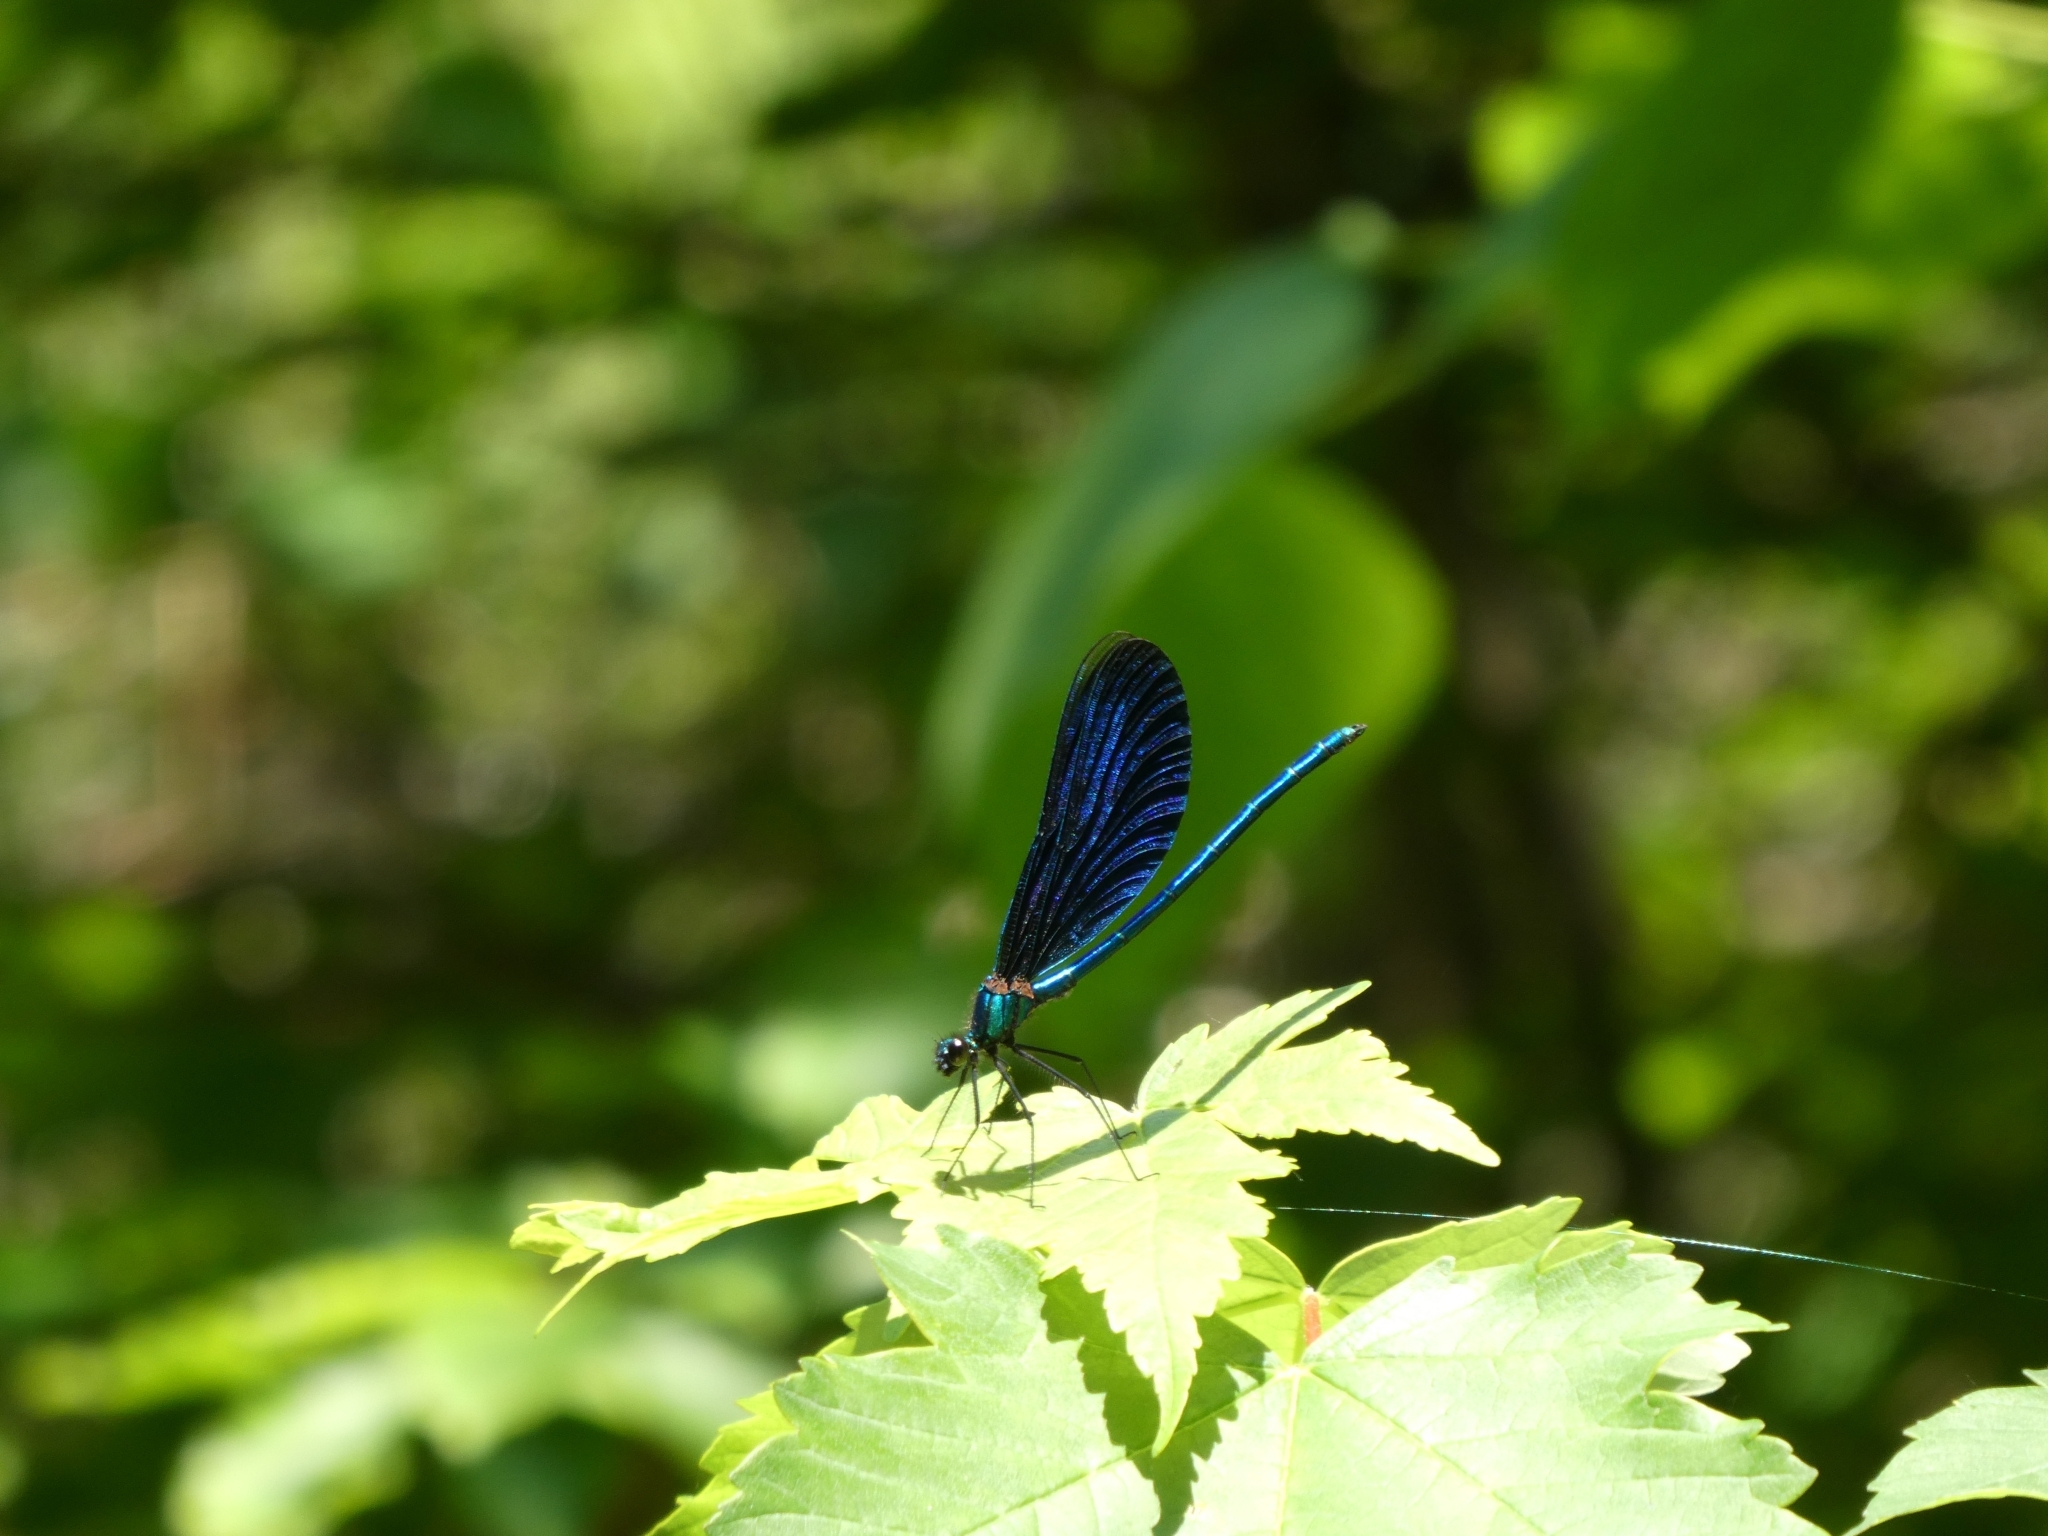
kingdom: Animalia
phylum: Arthropoda
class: Insecta
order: Odonata
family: Calopterygidae
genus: Calopteryx
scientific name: Calopteryx virgo
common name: Beautiful demoiselle
